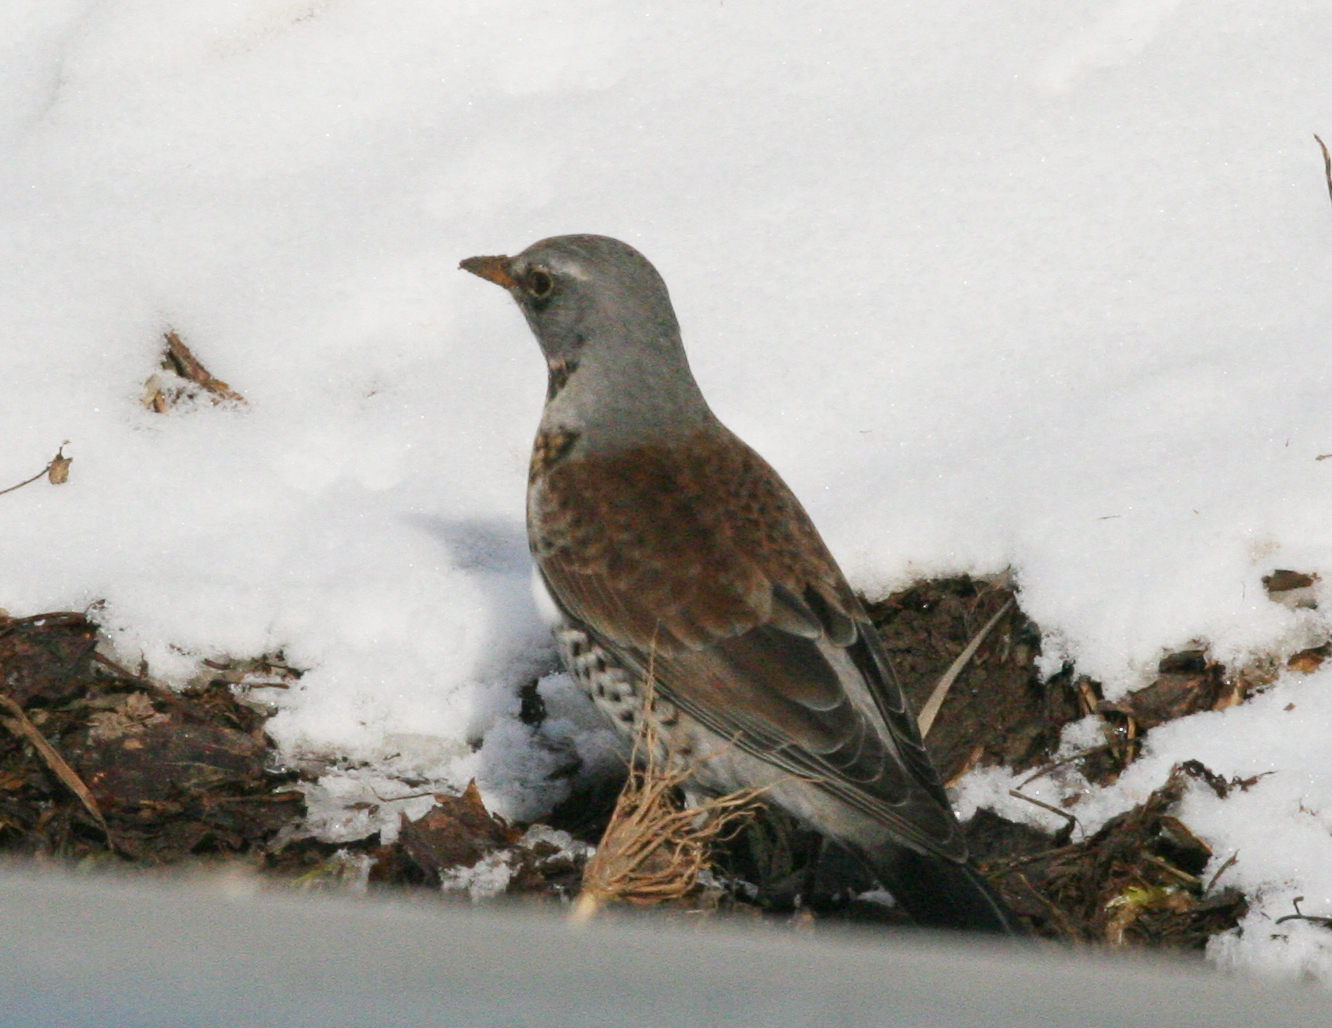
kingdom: Animalia
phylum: Chordata
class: Aves
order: Passeriformes
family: Turdidae
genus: Turdus
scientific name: Turdus pilaris
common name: Fieldfare
